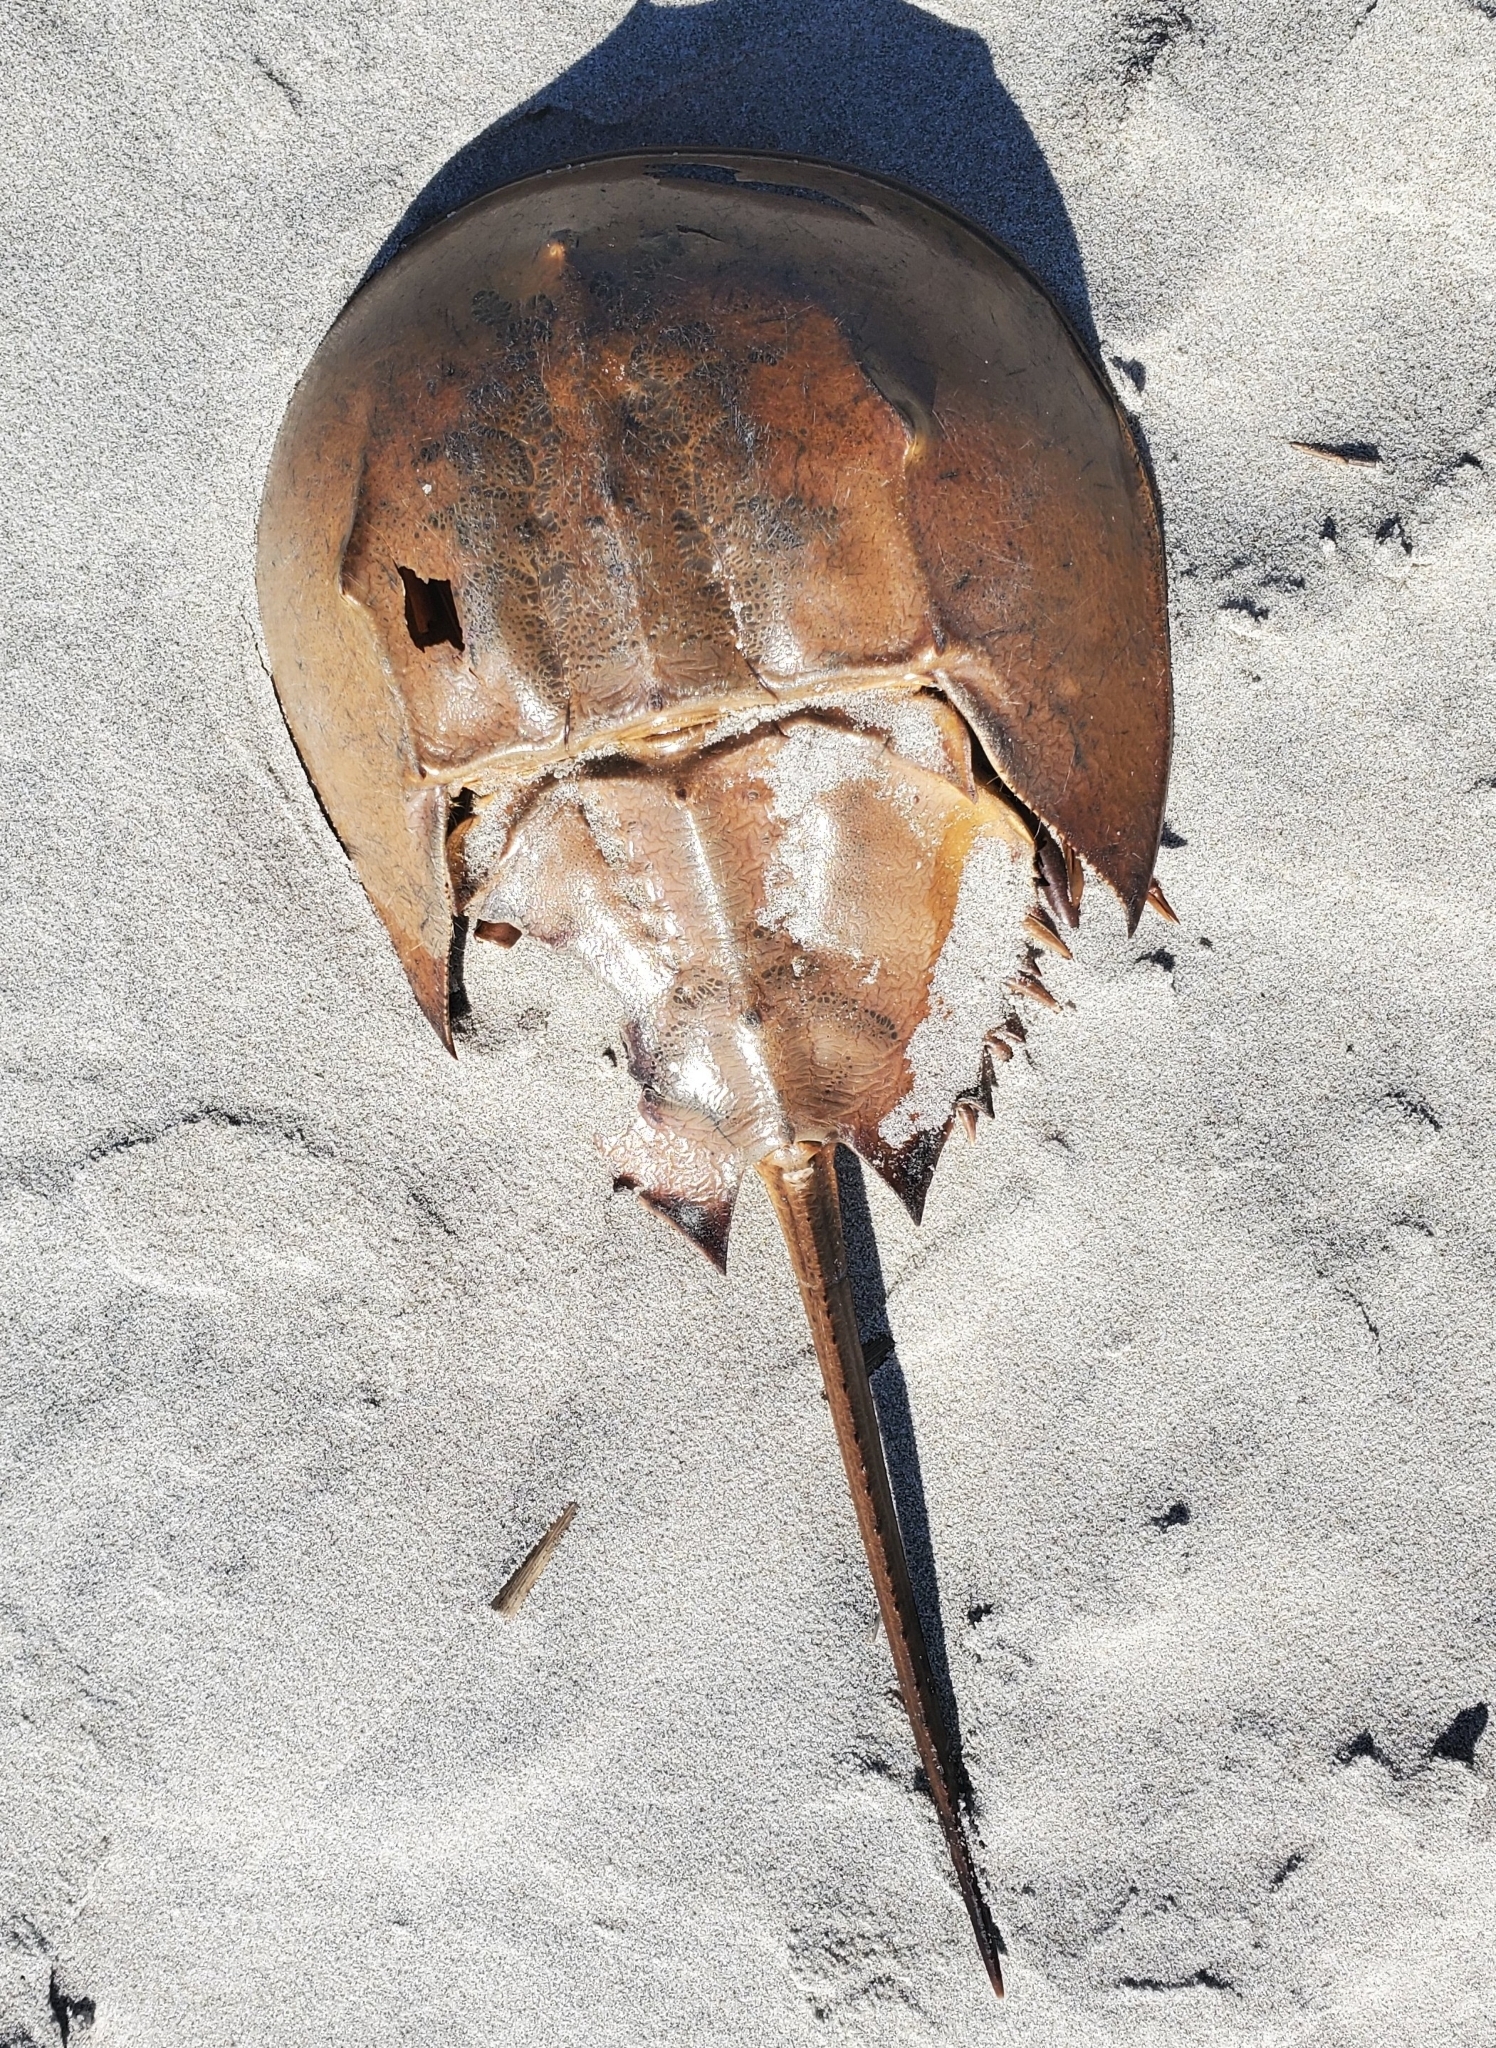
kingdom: Animalia
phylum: Arthropoda
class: Merostomata
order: Xiphosurida
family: Limulidae
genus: Limulus
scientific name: Limulus polyphemus
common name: Horseshoe crab
